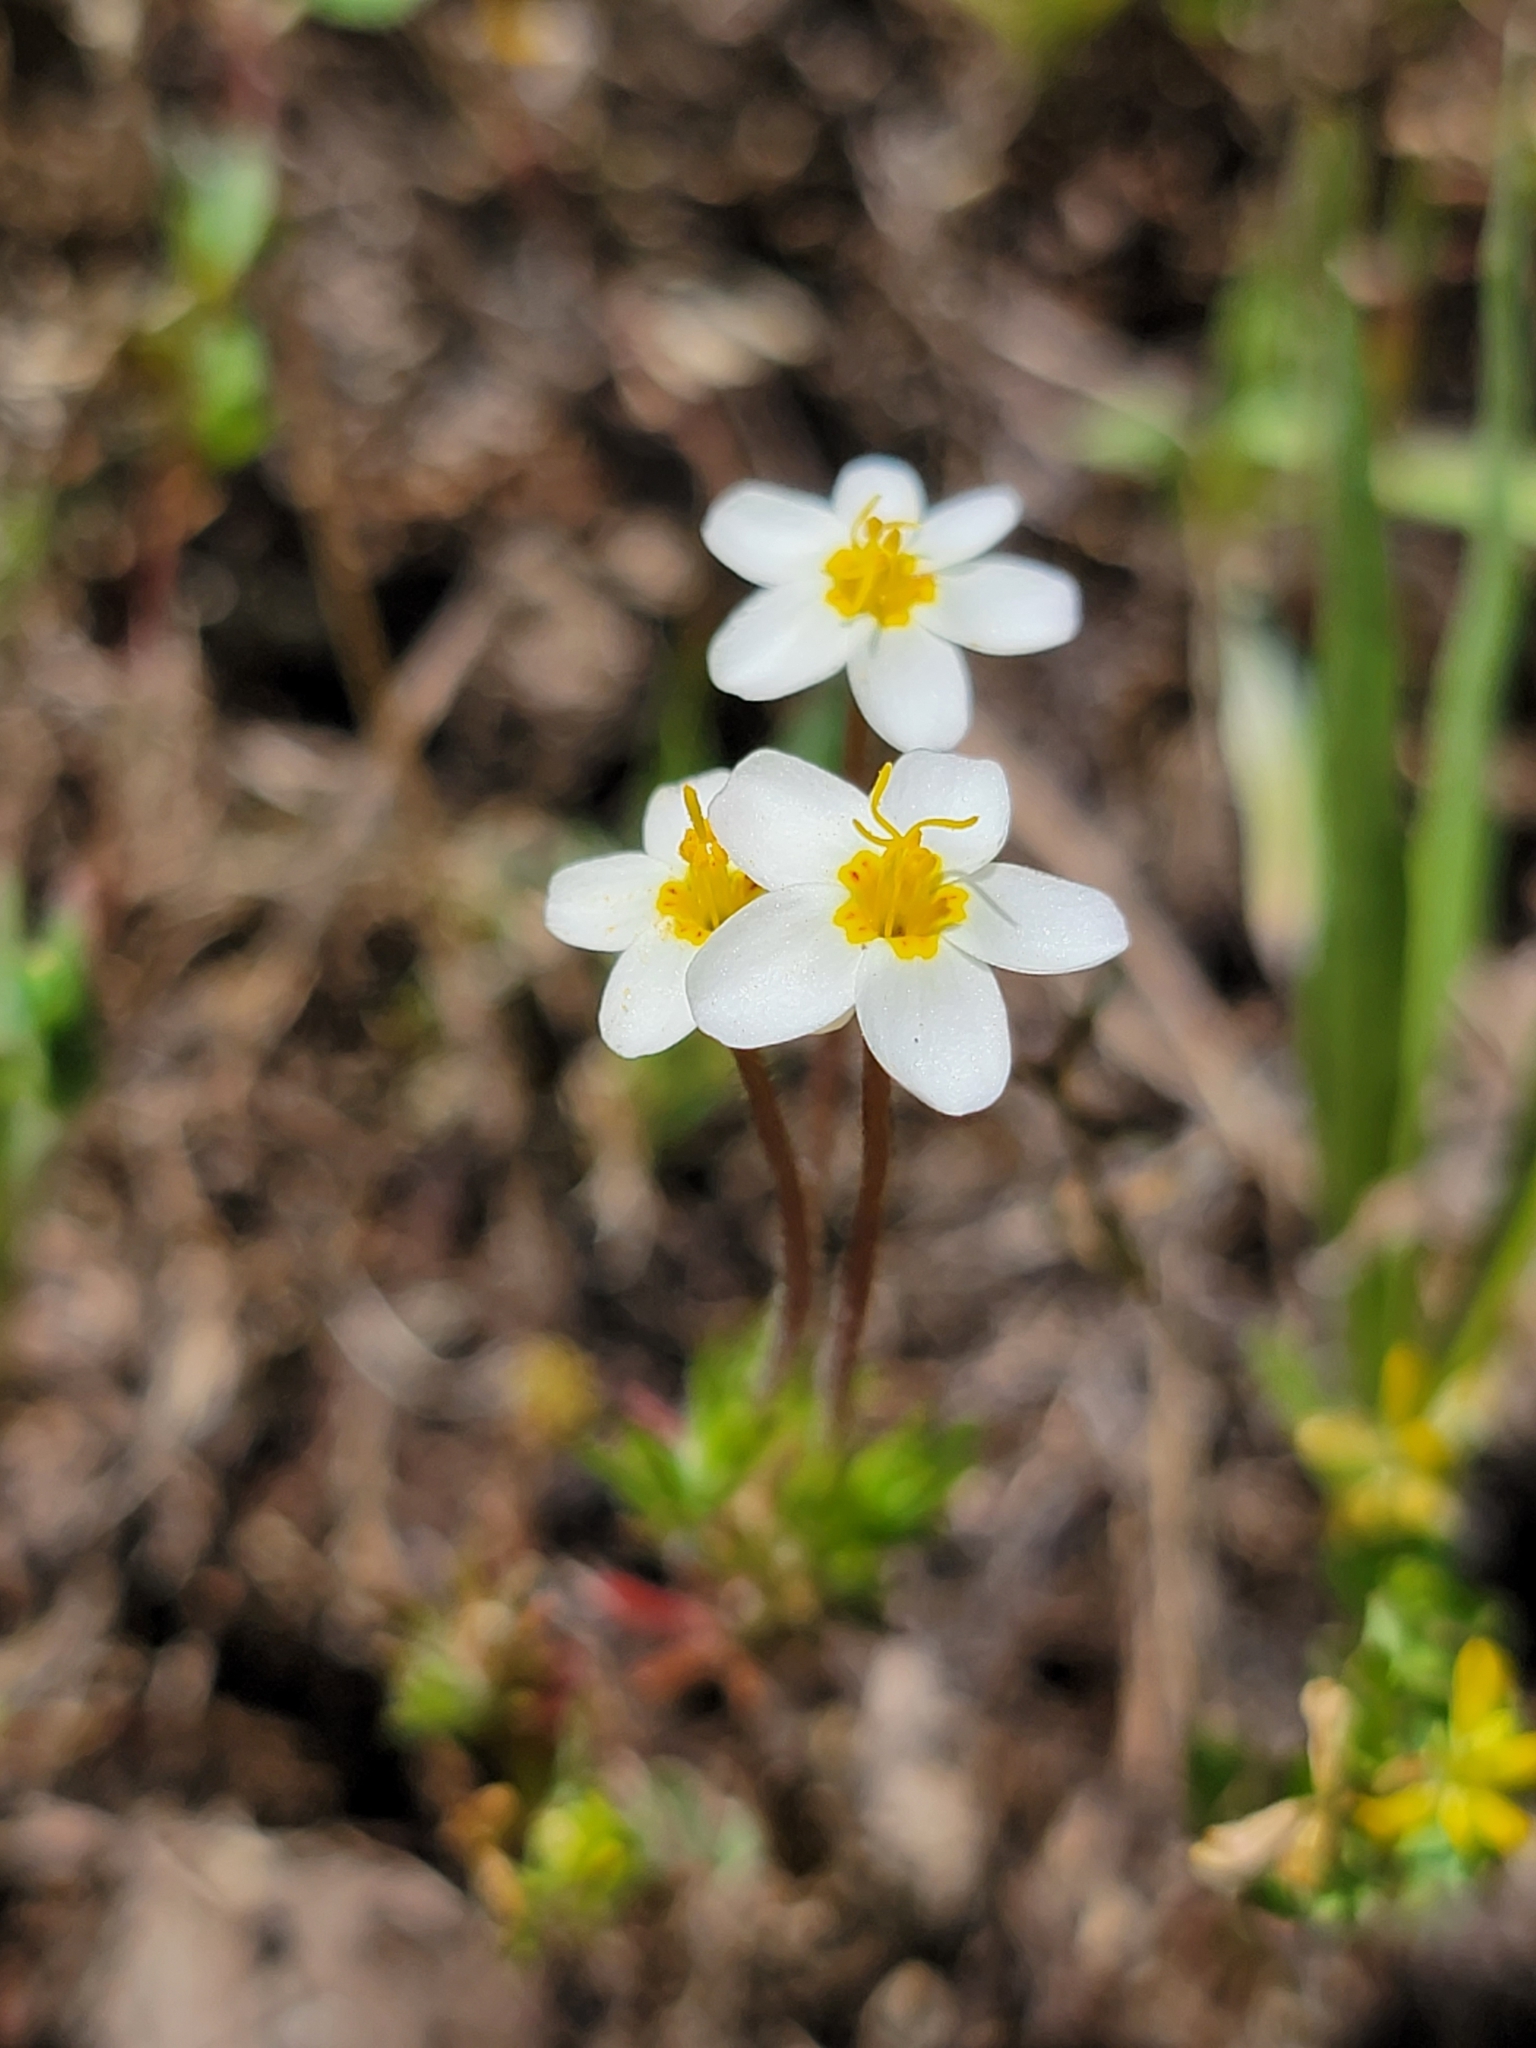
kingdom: Plantae
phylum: Tracheophyta
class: Magnoliopsida
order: Ericales
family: Polemoniaceae
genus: Leptosiphon
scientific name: Leptosiphon parviflorus
